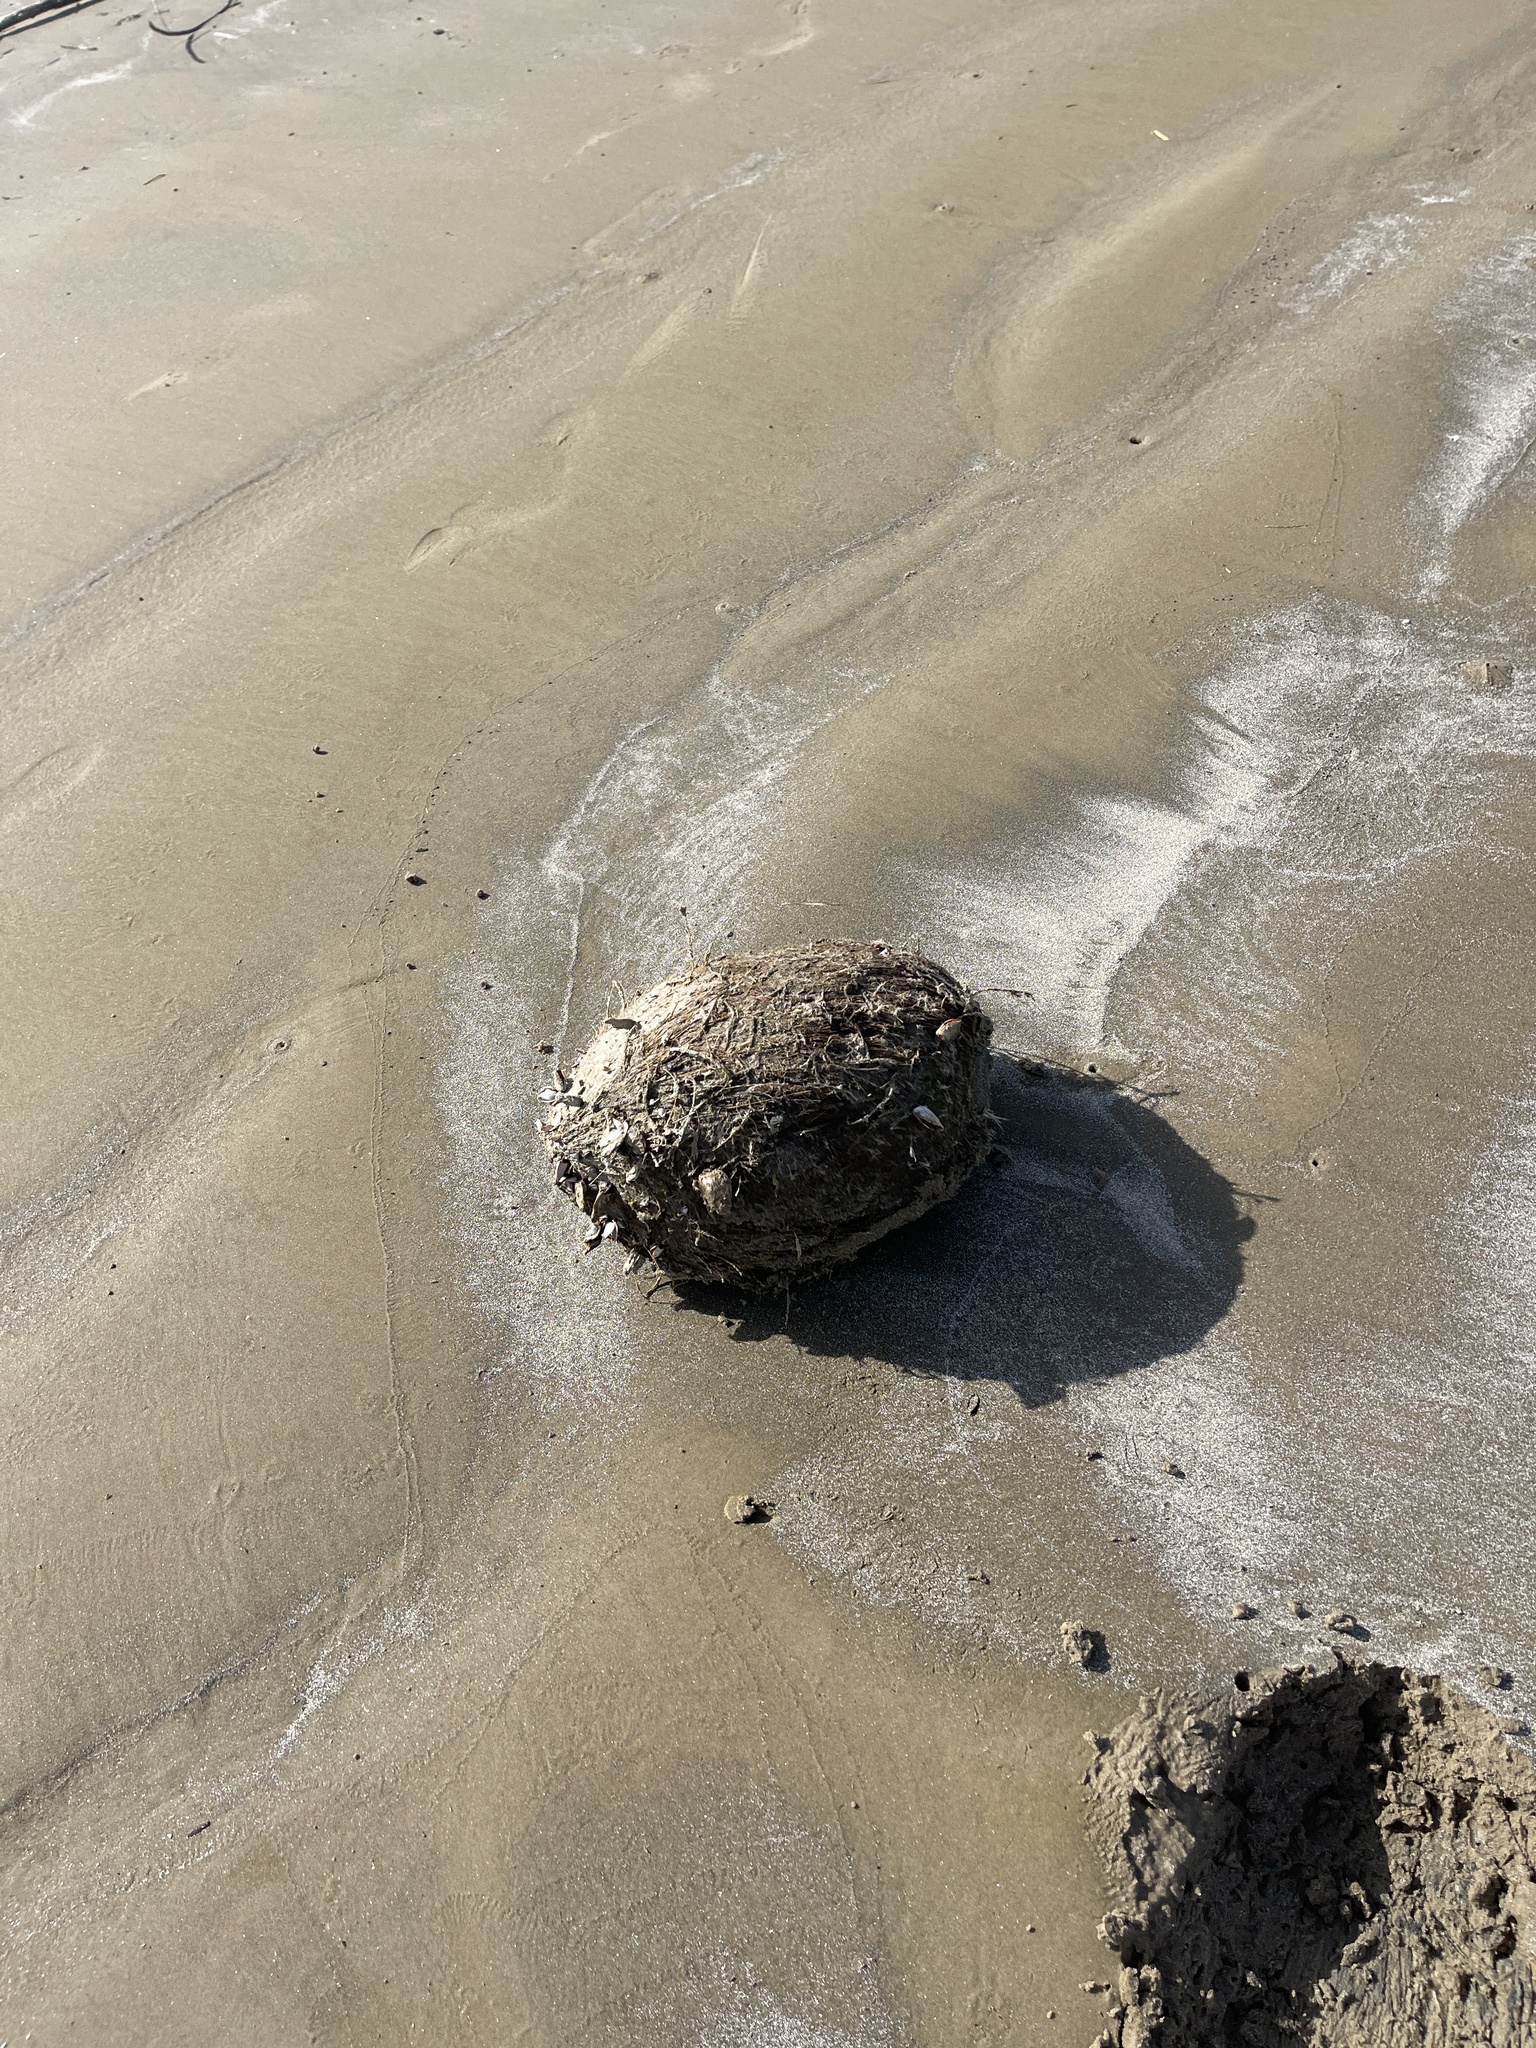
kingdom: Plantae
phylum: Tracheophyta
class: Liliopsida
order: Arecales
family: Arecaceae
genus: Cocos
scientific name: Cocos nucifera
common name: Coconut palm
